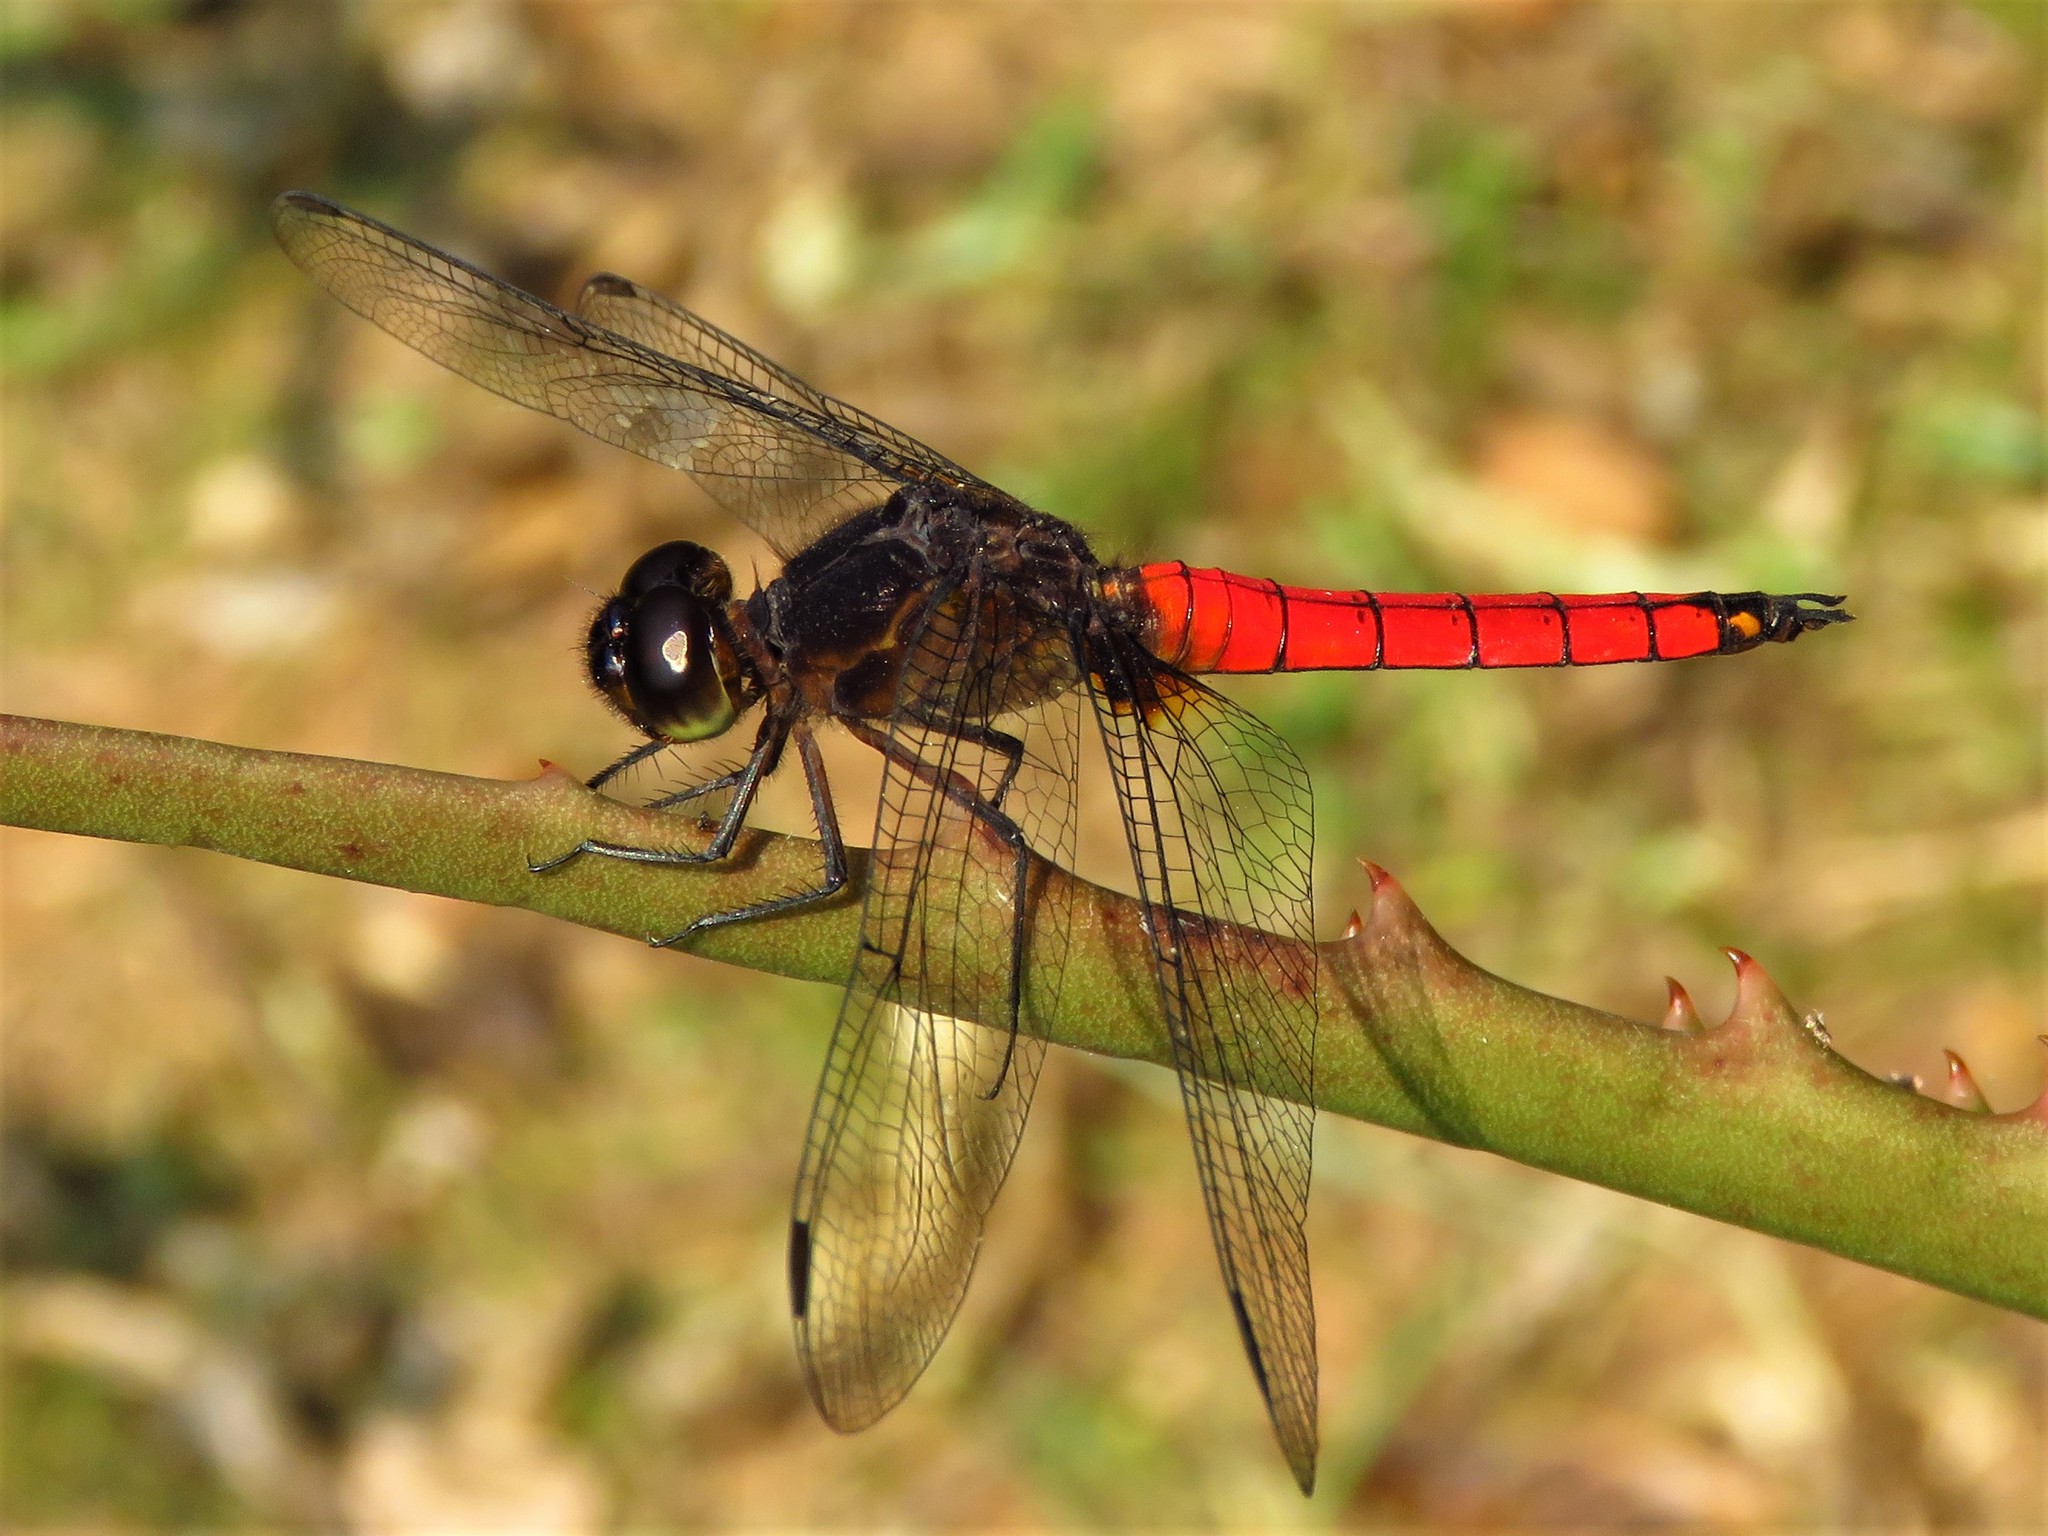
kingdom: Animalia
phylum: Arthropoda
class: Insecta
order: Odonata
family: Libellulidae
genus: Hadrothemis
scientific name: Hadrothemis defecta
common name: Scarlet jungleskimmer
